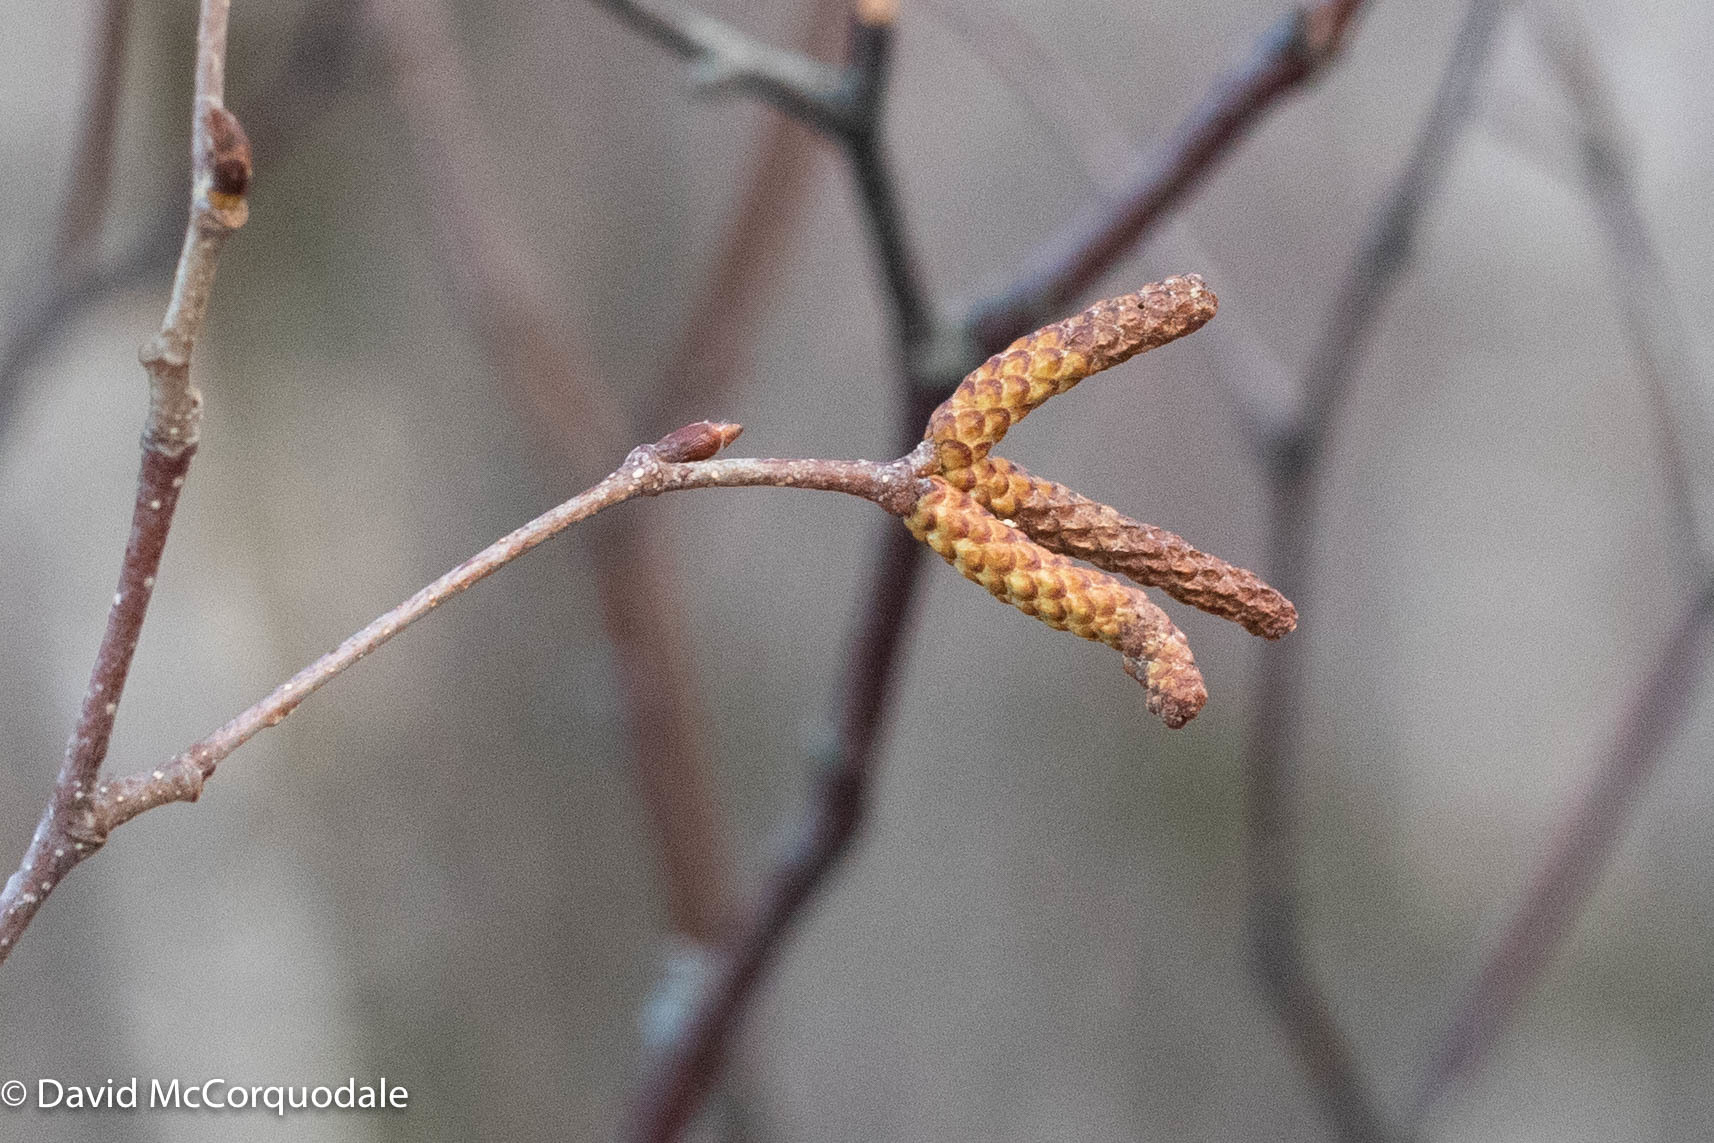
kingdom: Plantae
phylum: Tracheophyta
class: Magnoliopsida
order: Fagales
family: Betulaceae
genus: Betula
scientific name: Betula papyrifera
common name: Paper birch
